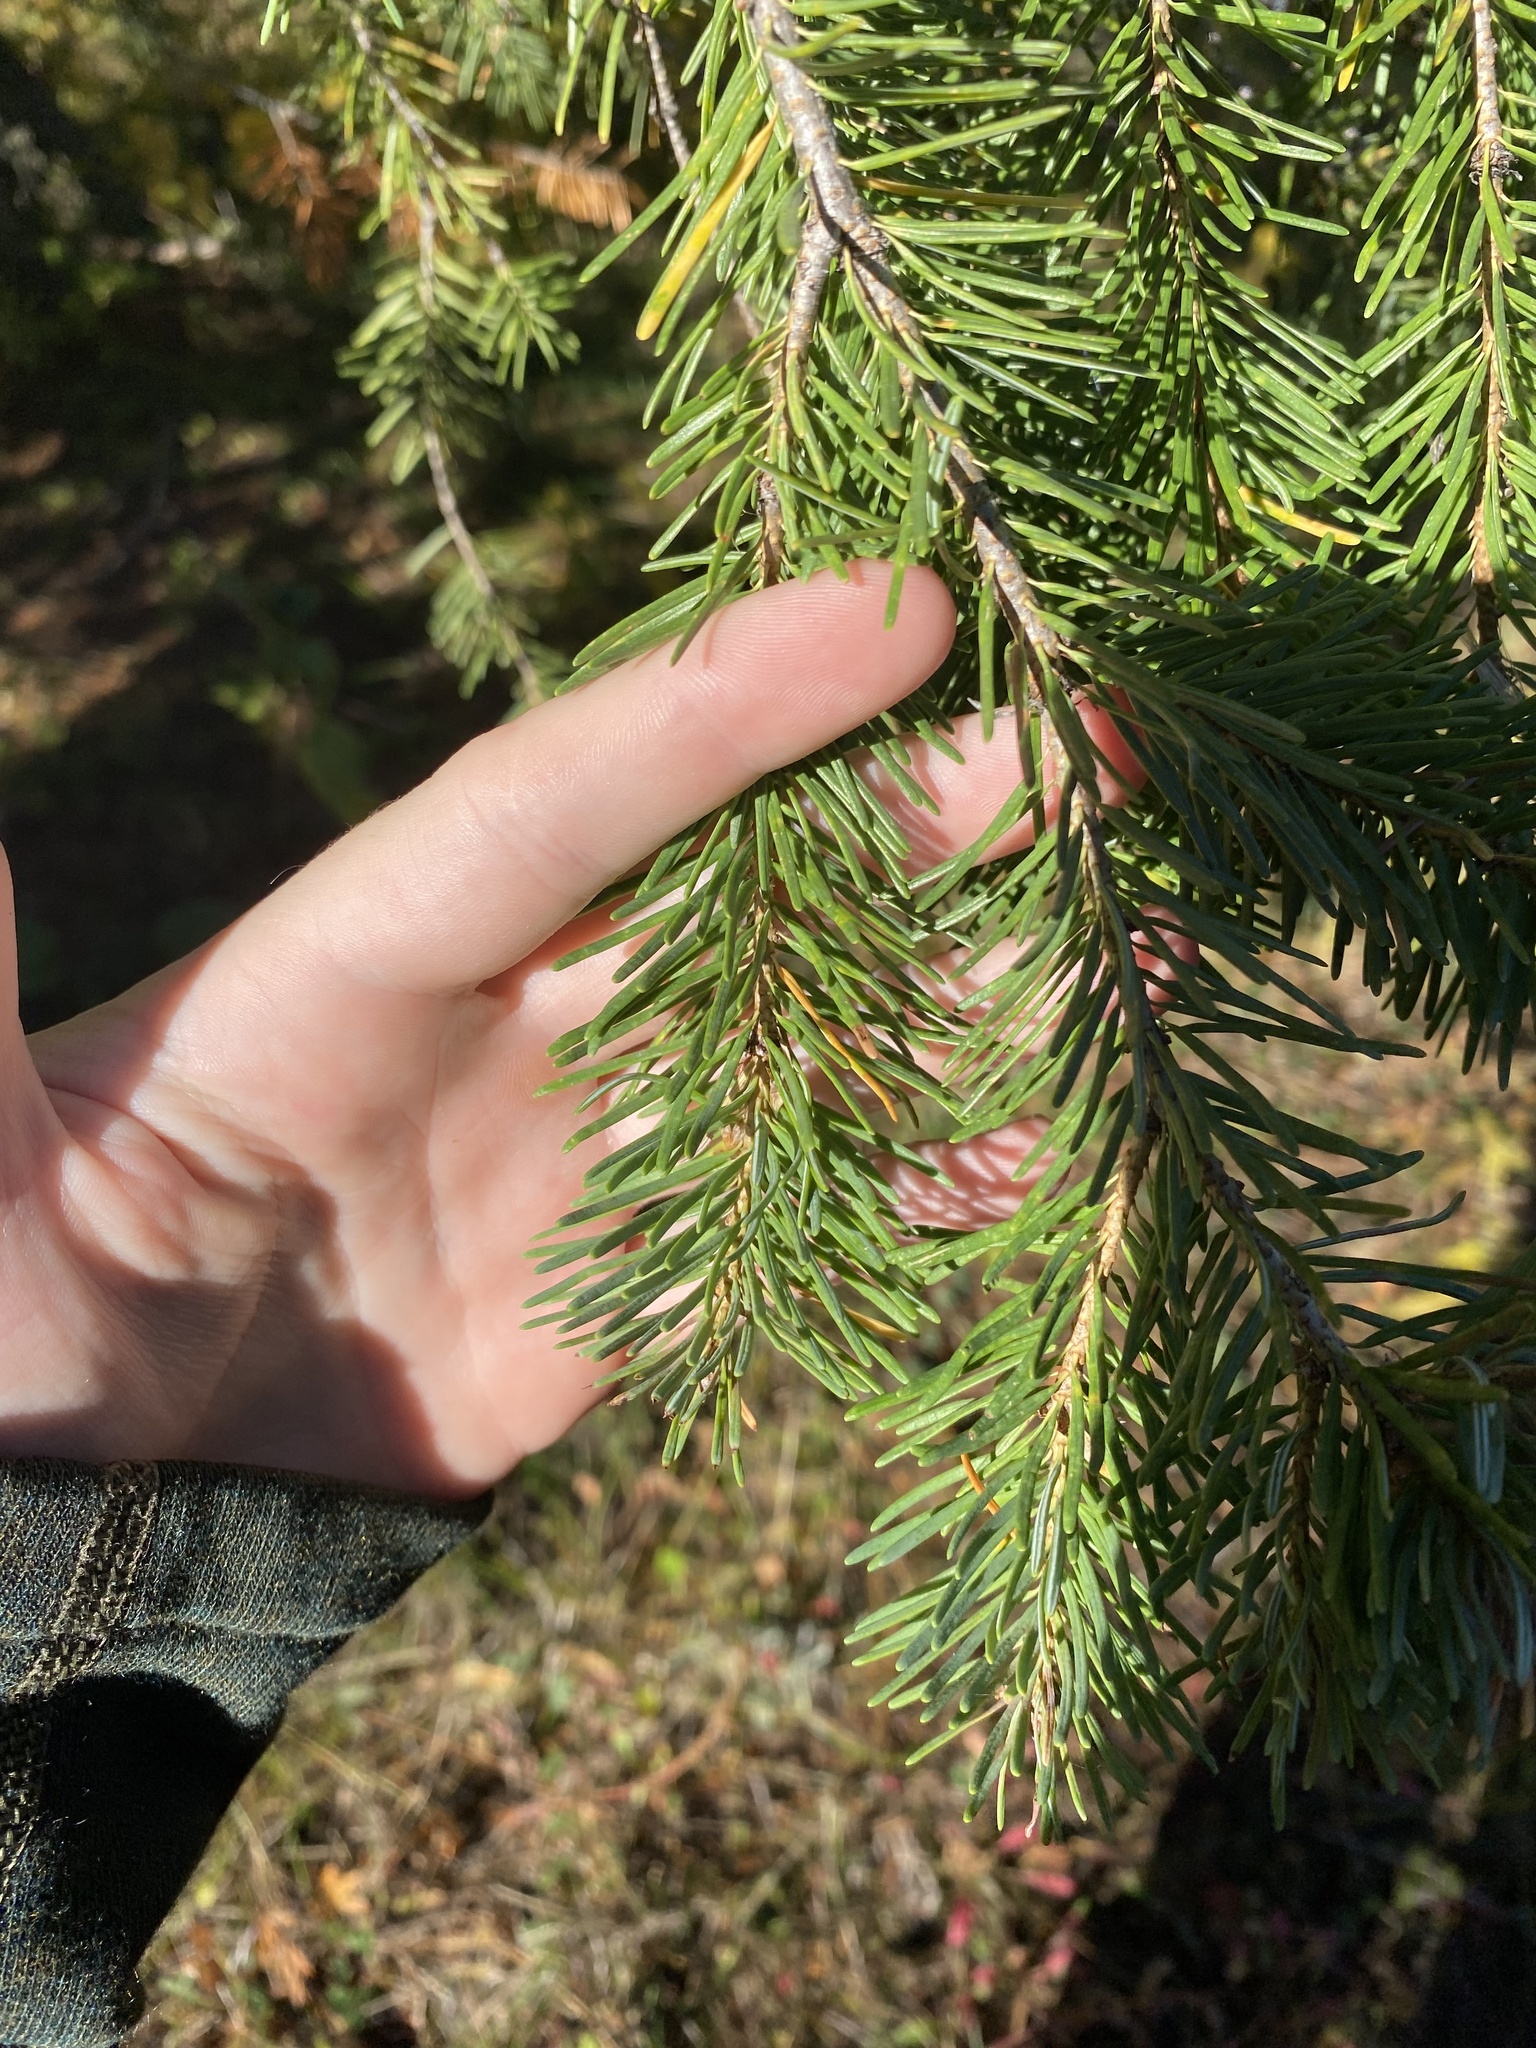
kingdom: Plantae
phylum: Tracheophyta
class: Pinopsida
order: Pinales
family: Pinaceae
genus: Pseudotsuga
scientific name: Pseudotsuga menziesii
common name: Douglas fir
